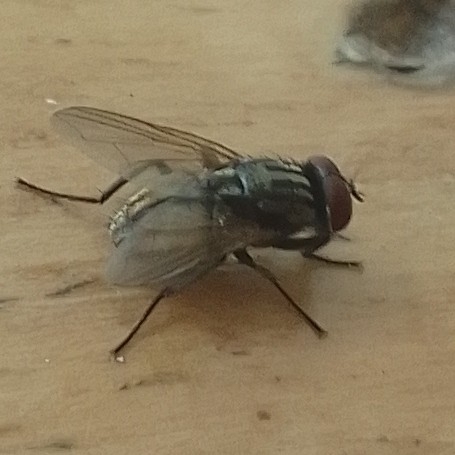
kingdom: Animalia
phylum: Arthropoda
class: Insecta
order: Diptera
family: Muscidae
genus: Musca
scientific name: Musca domestica
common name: House fly
